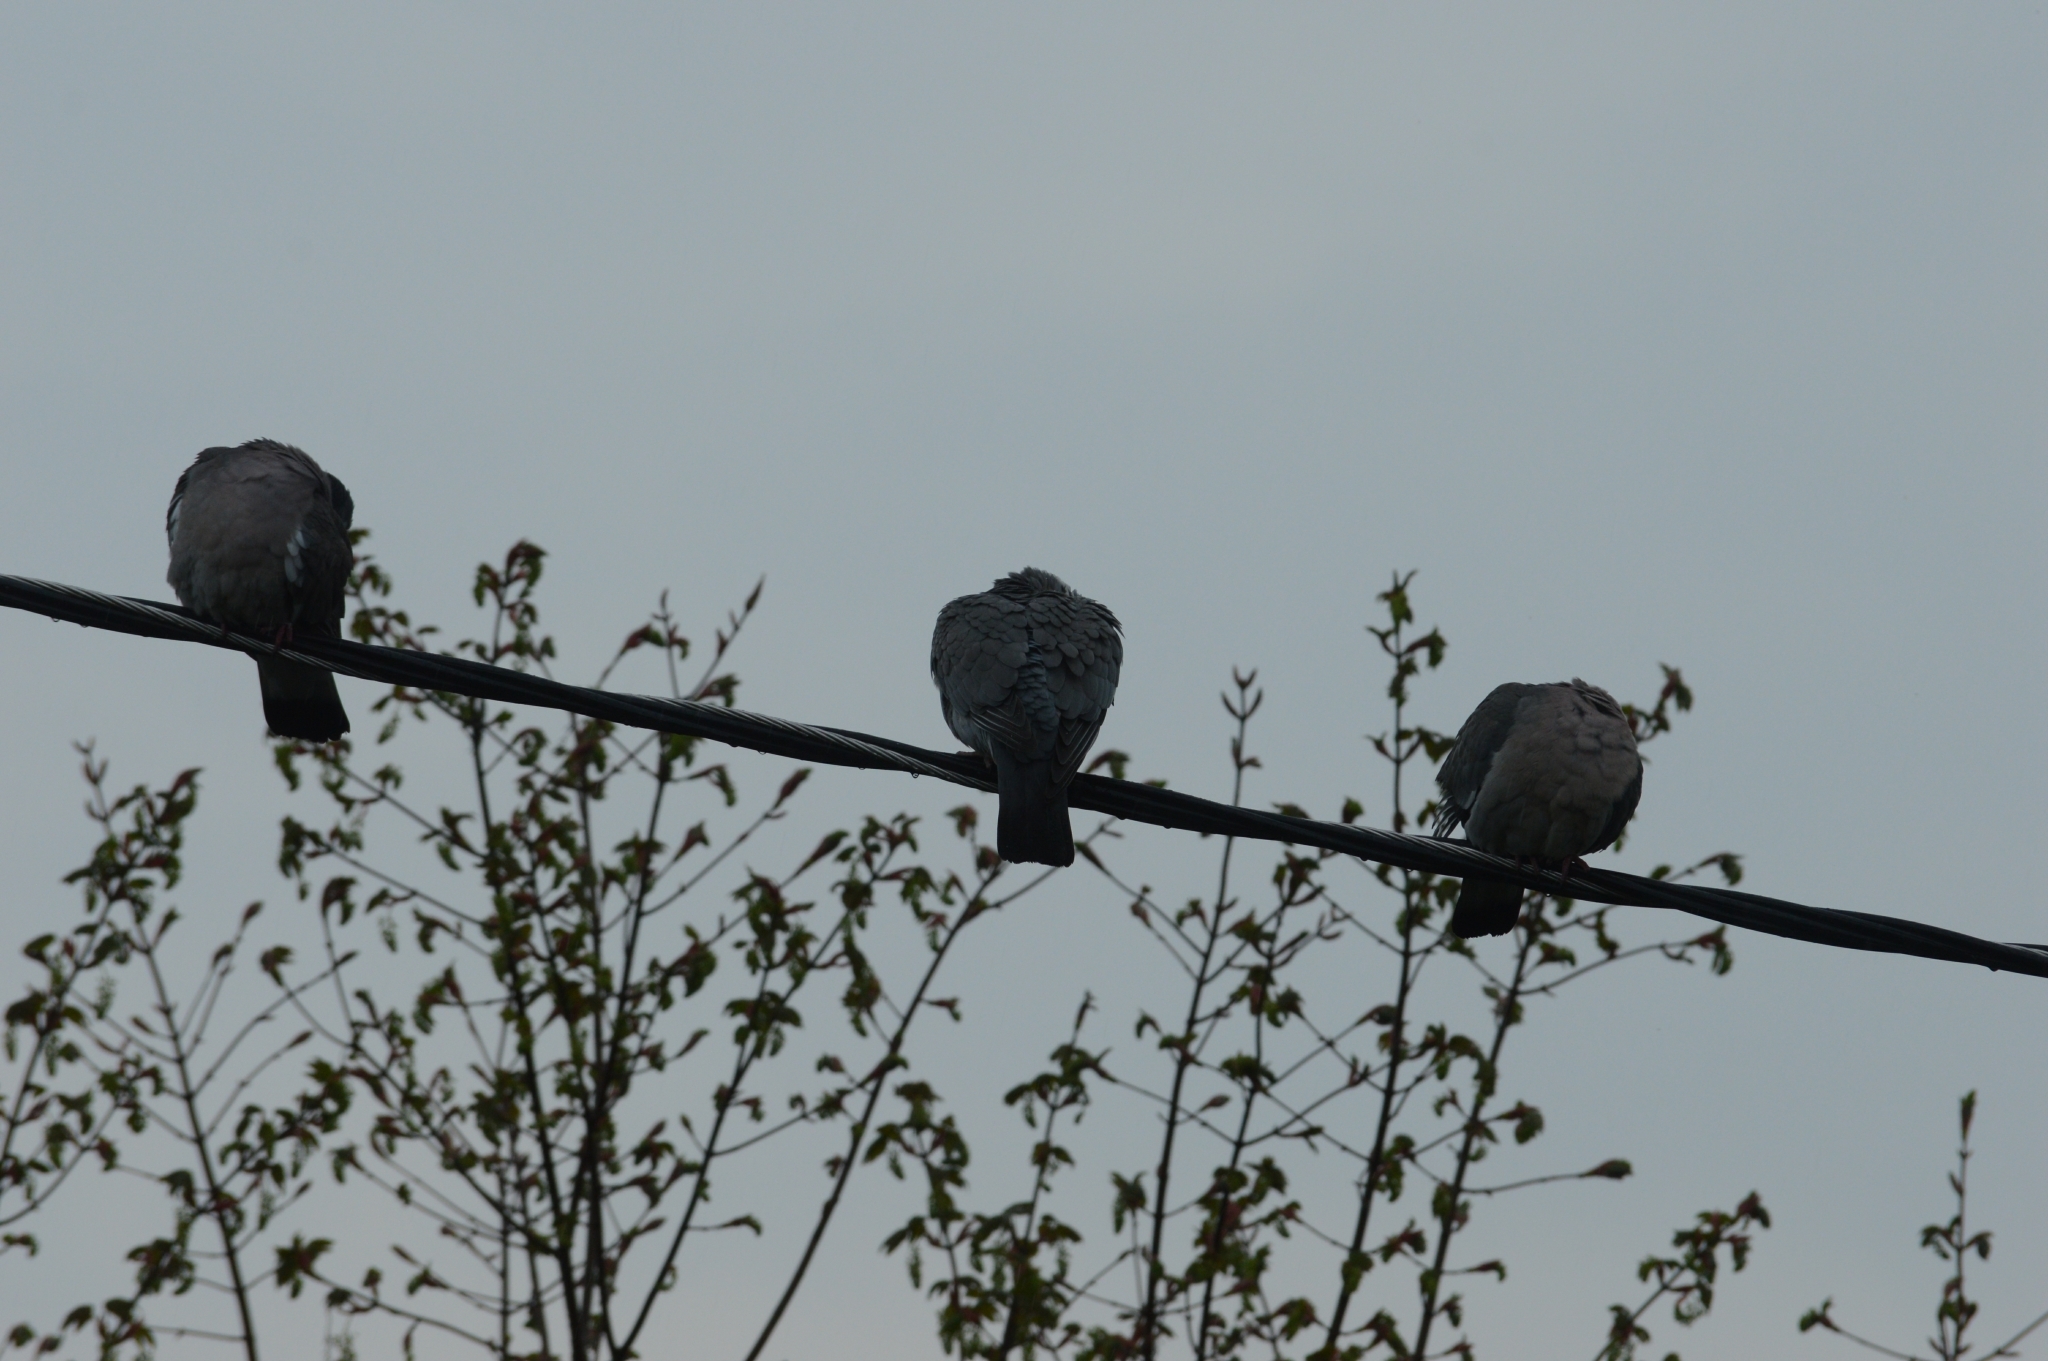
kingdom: Animalia
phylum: Chordata
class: Aves
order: Columbiformes
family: Columbidae
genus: Columba
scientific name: Columba palumbus
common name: Common wood pigeon
